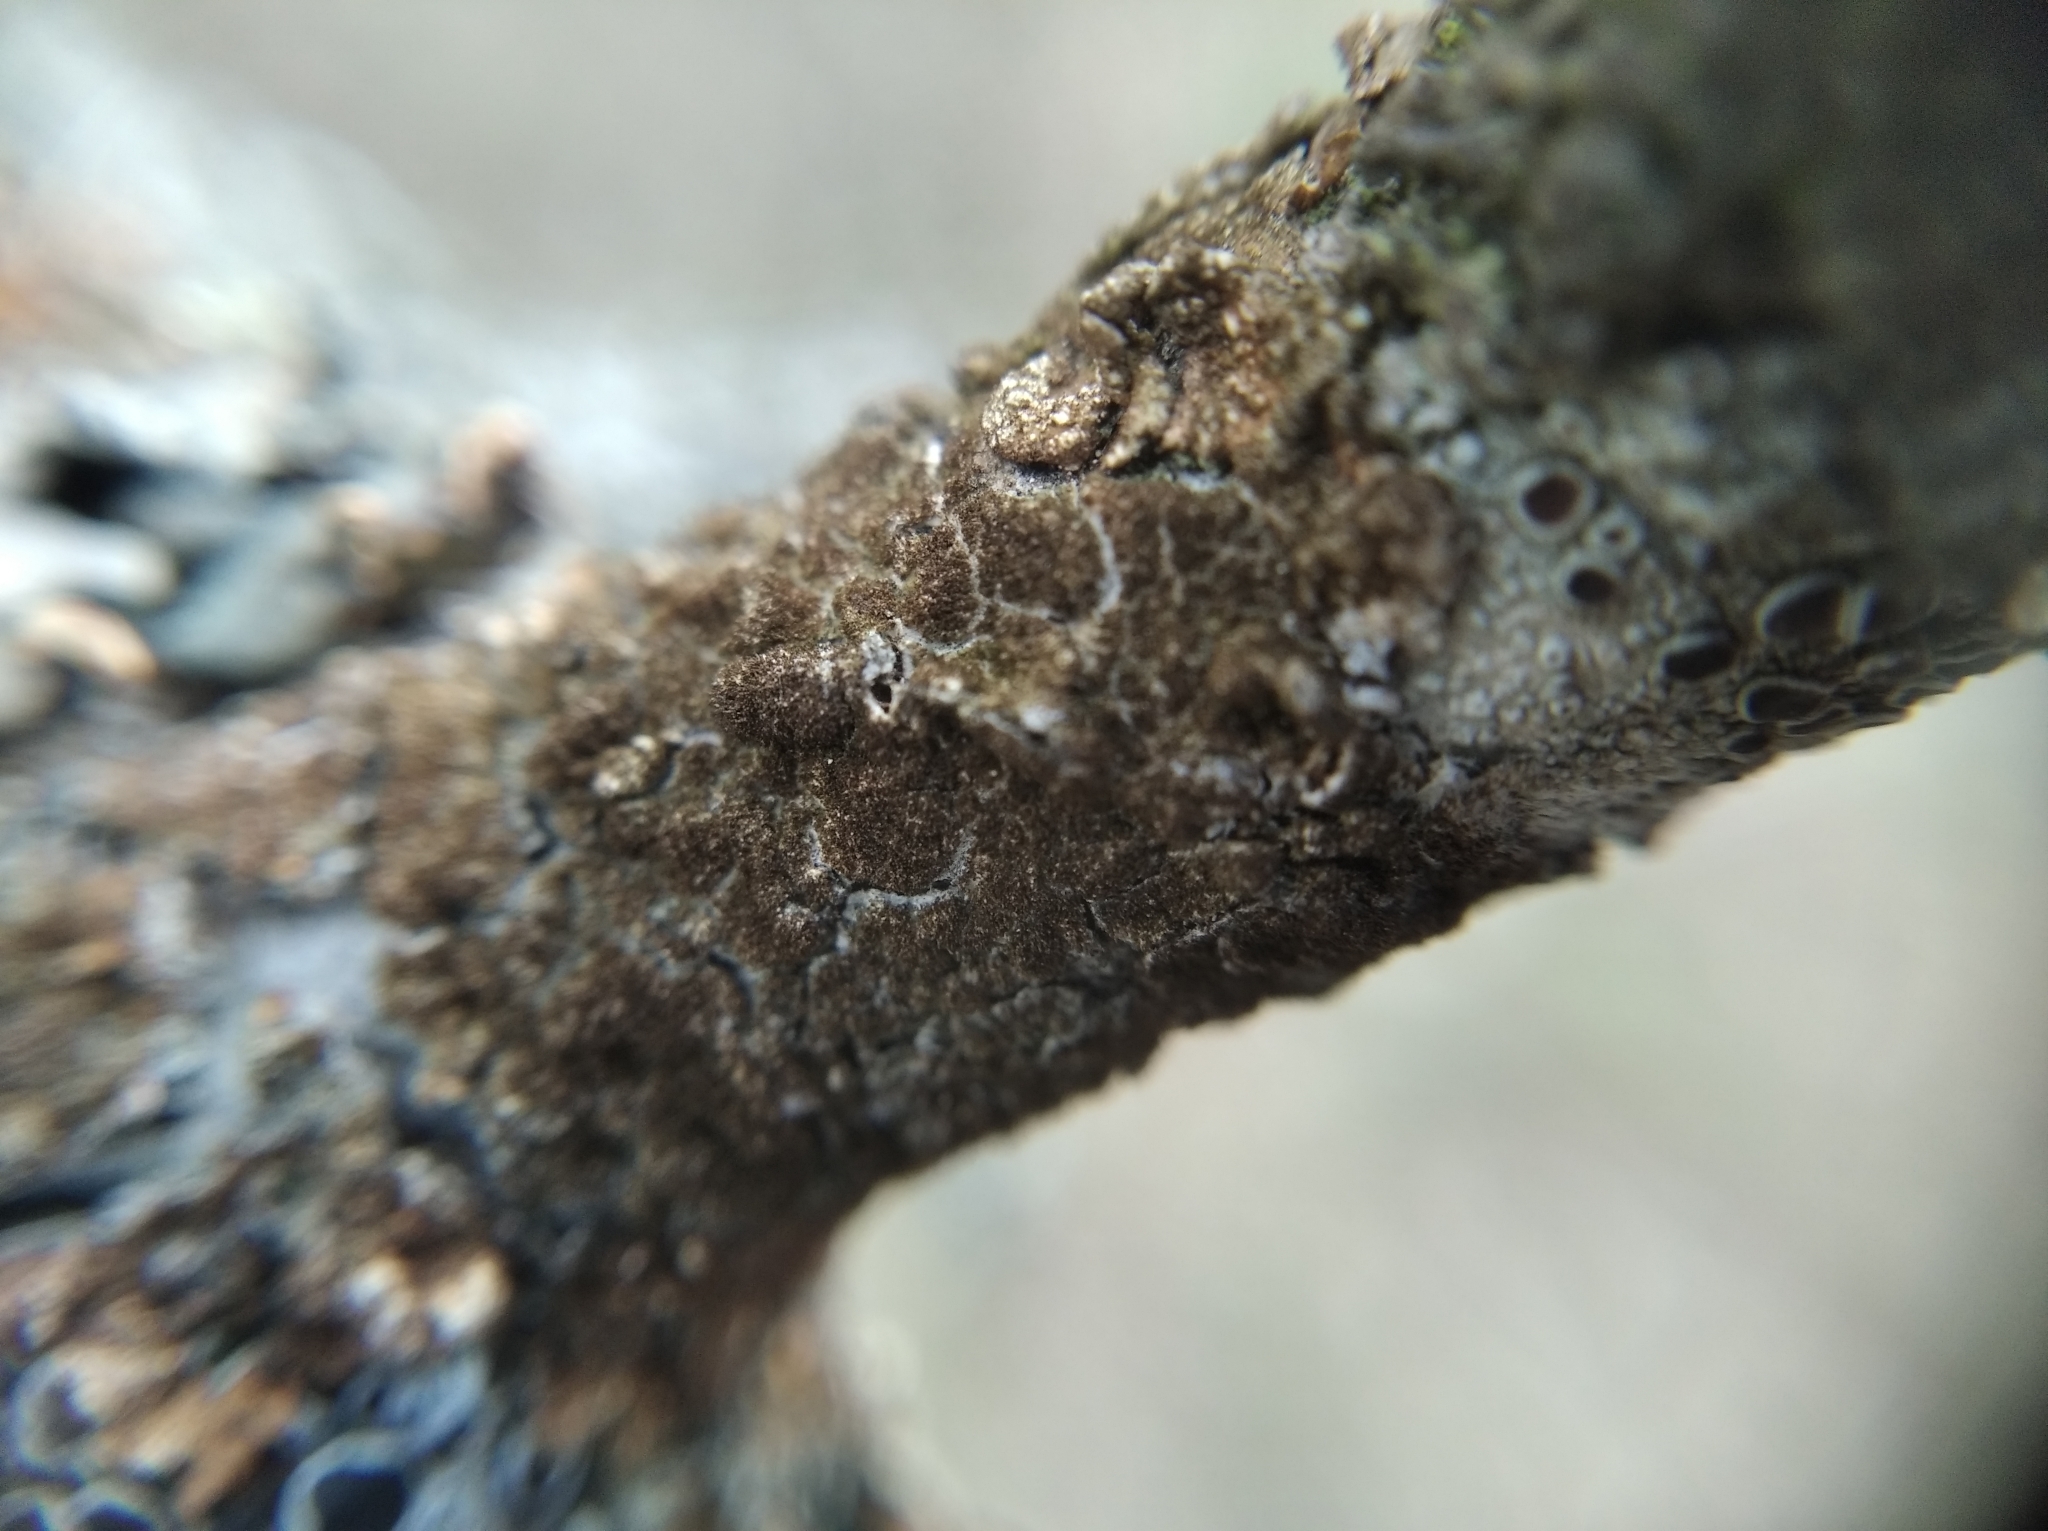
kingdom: Fungi
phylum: Ascomycota
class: Lecanoromycetes
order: Lecanorales
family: Parmeliaceae
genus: Melanelixia
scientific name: Melanelixia subaurifera
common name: Abraded camouflage lichen
